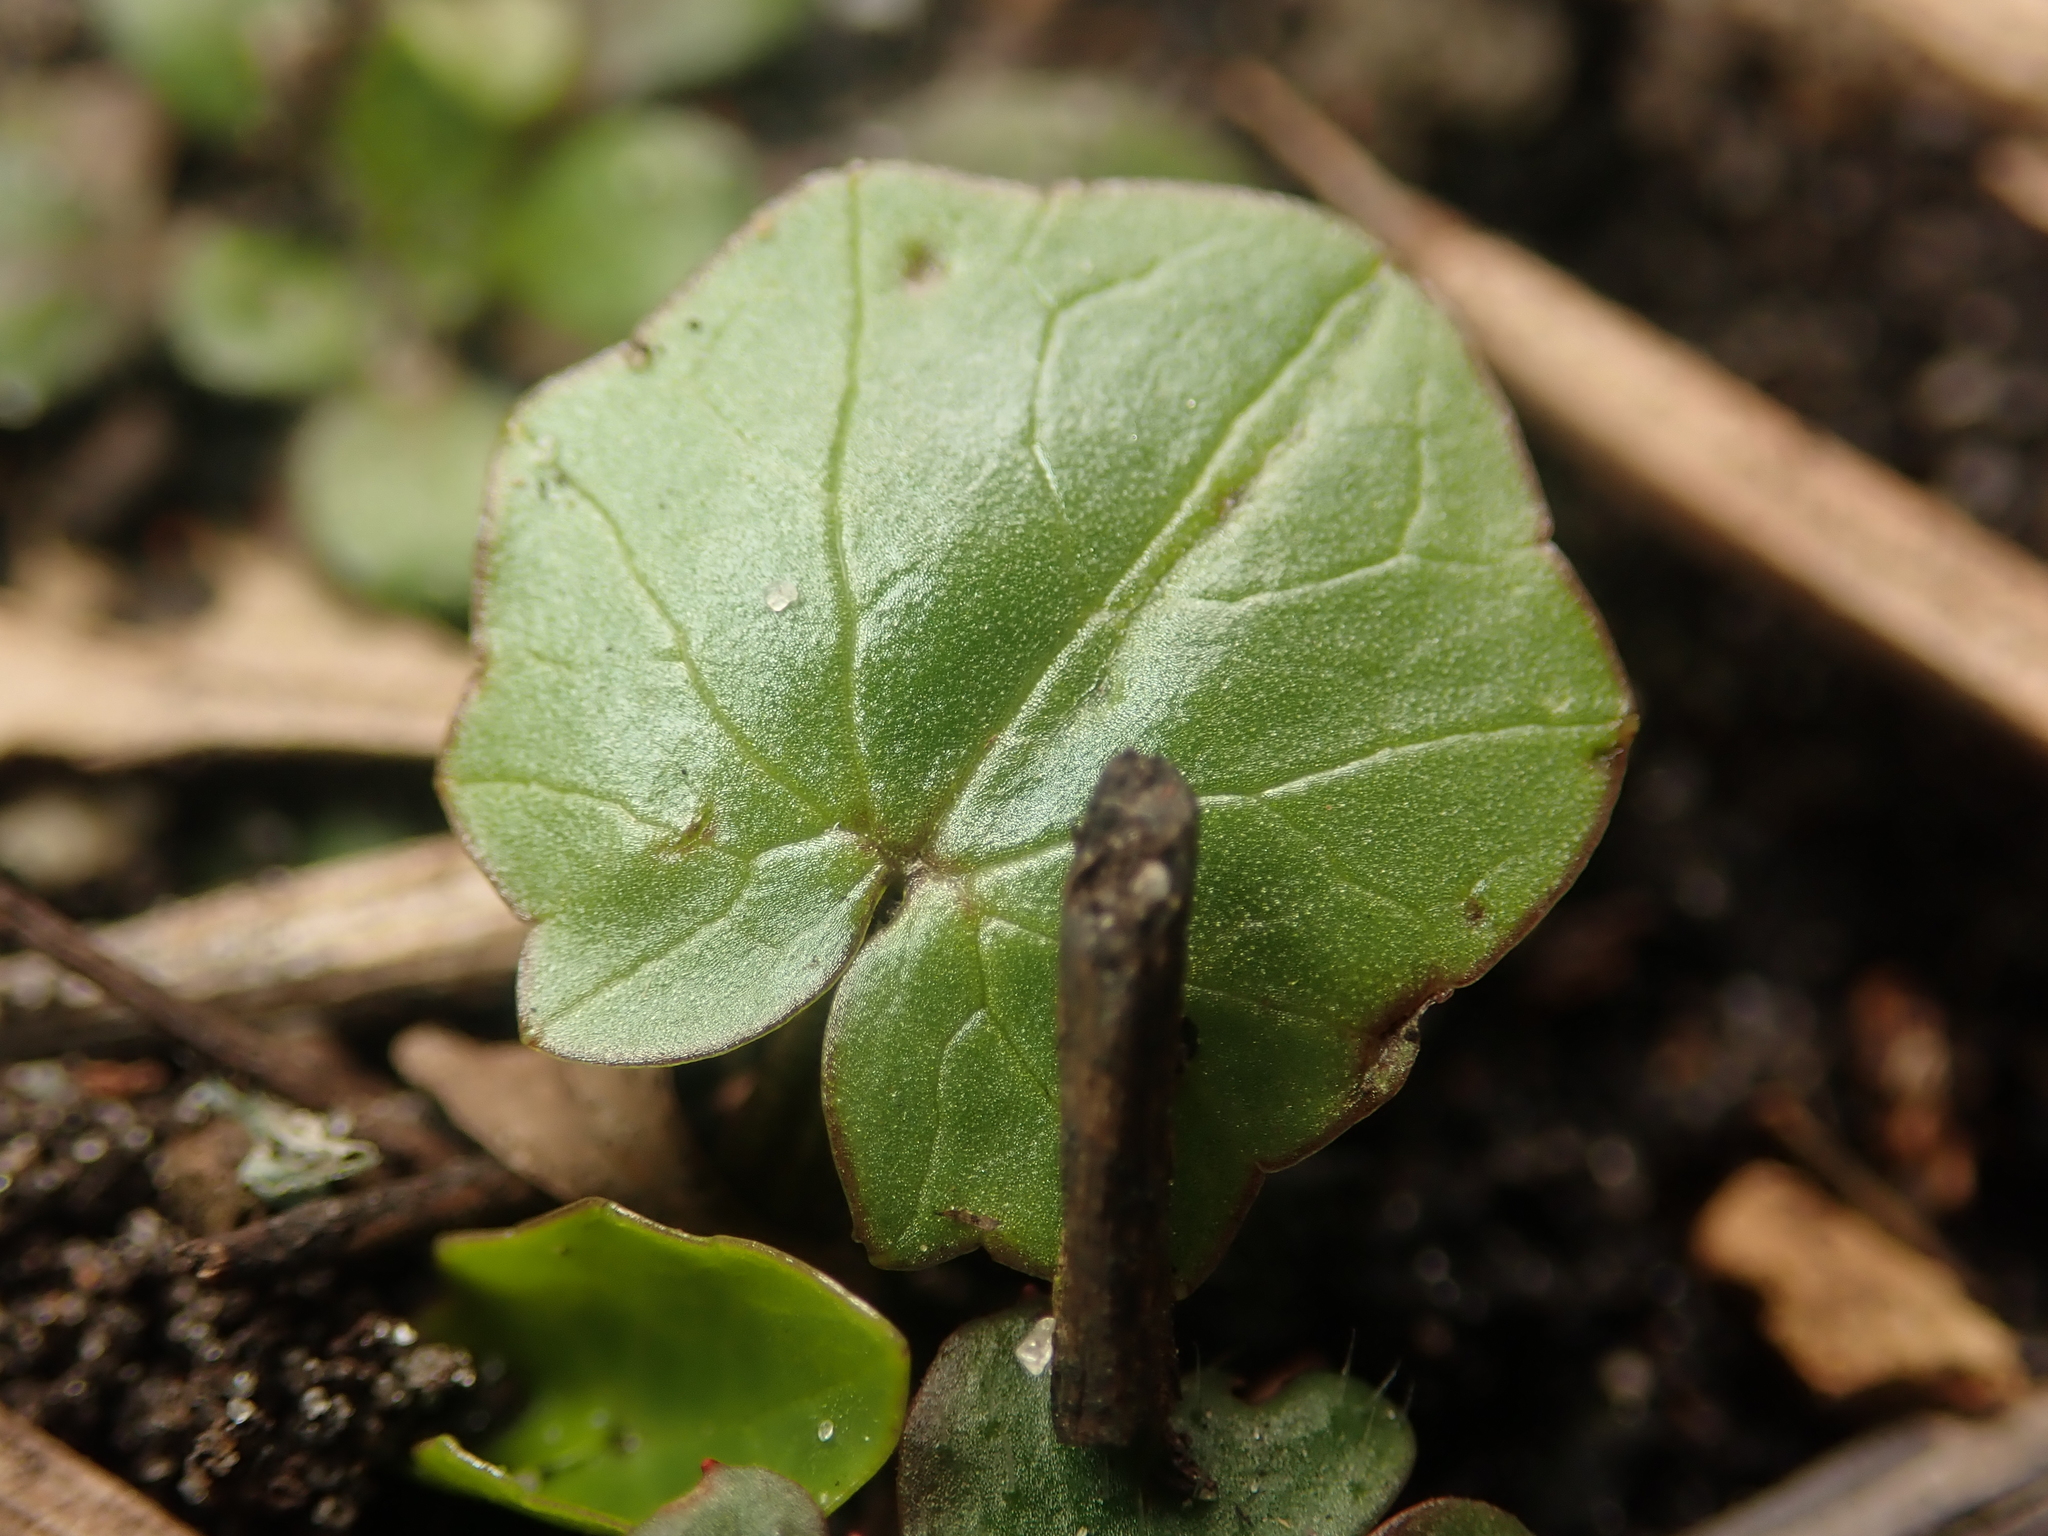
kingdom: Plantae
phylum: Tracheophyta
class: Magnoliopsida
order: Ranunculales
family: Ranunculaceae
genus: Ficaria
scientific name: Ficaria verna
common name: Lesser celandine
